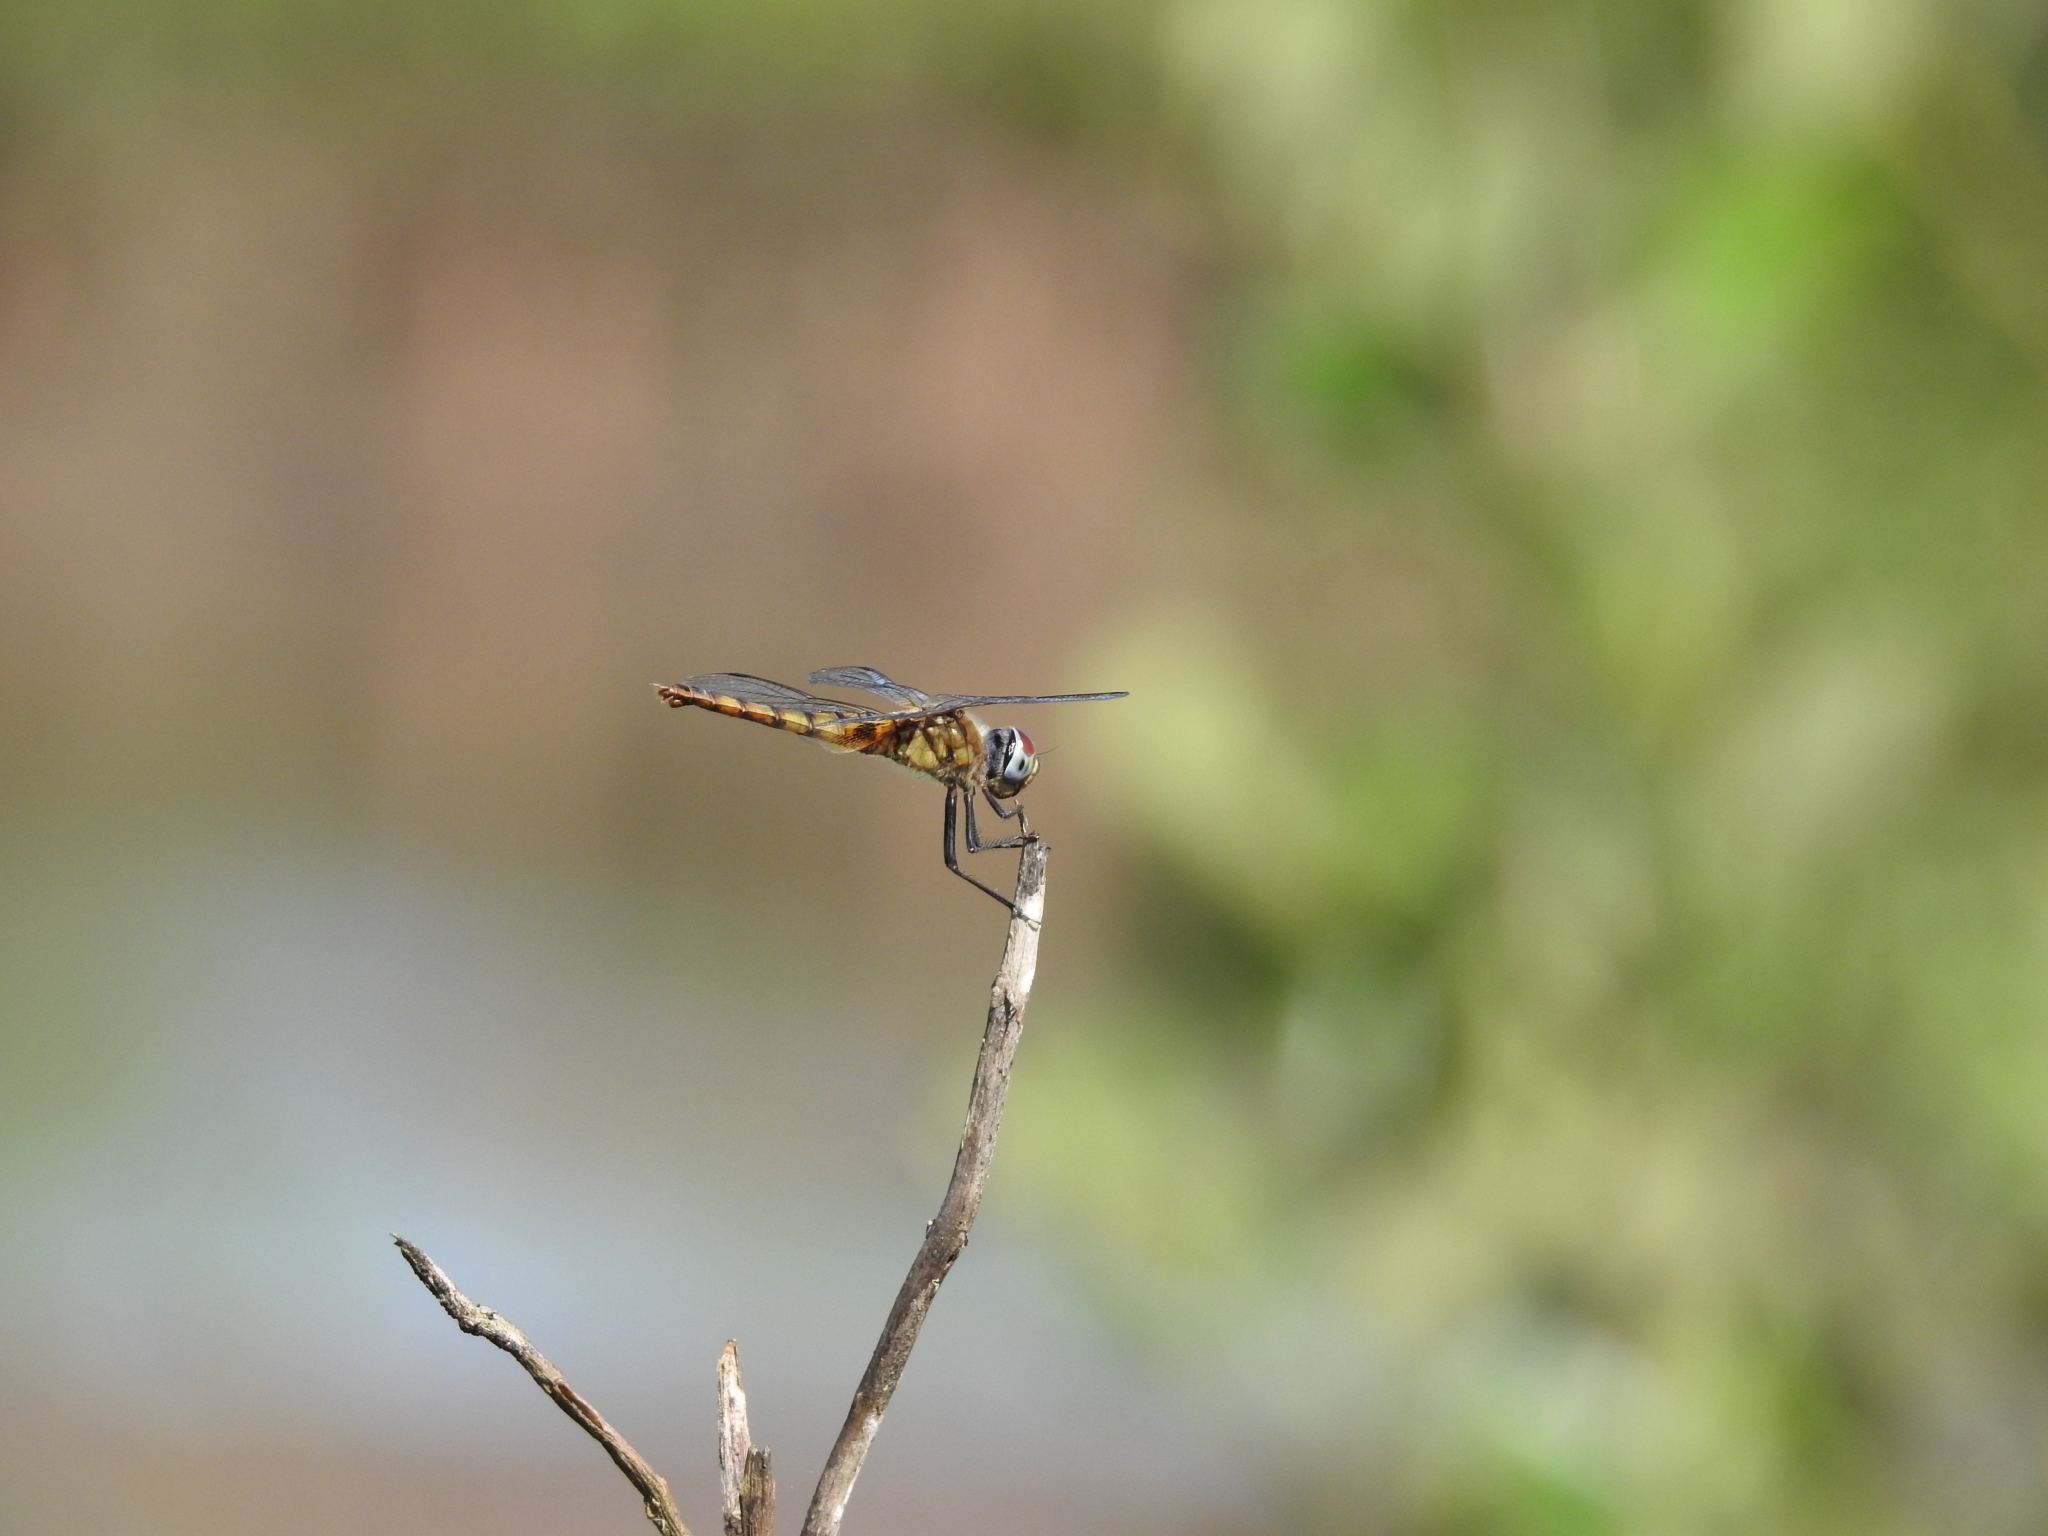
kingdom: Animalia
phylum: Arthropoda
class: Insecta
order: Odonata
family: Libellulidae
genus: Urothemis
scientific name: Urothemis signata
